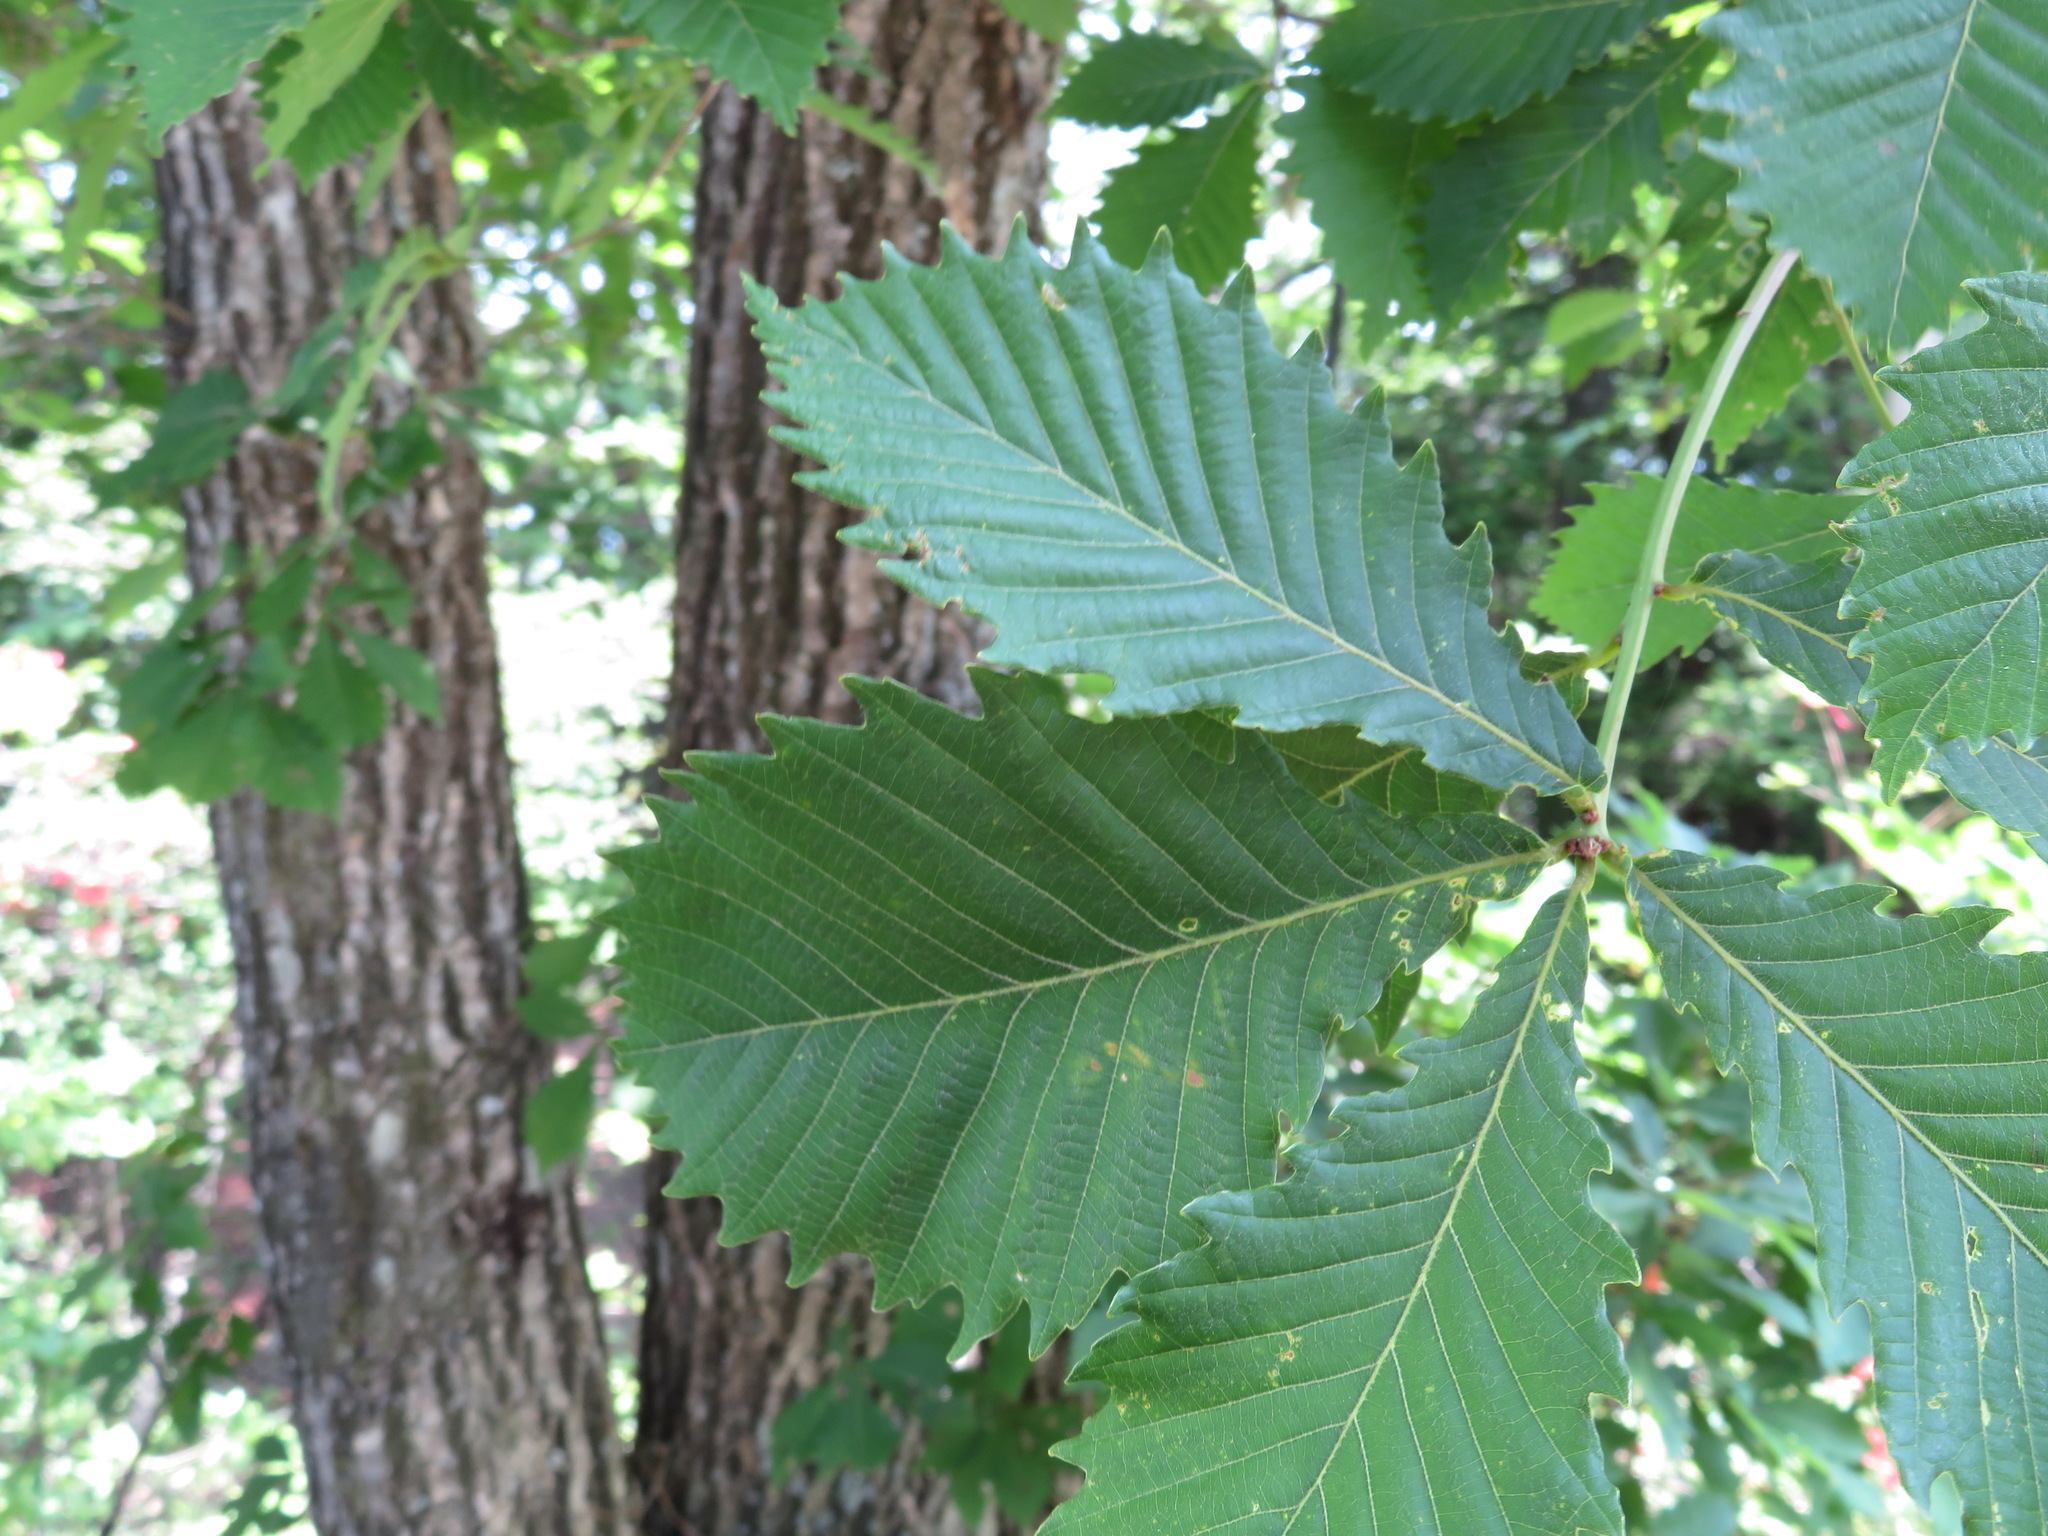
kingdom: Plantae
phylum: Tracheophyta
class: Magnoliopsida
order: Fagales
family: Fagaceae
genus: Quercus
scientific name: Quercus crispula
